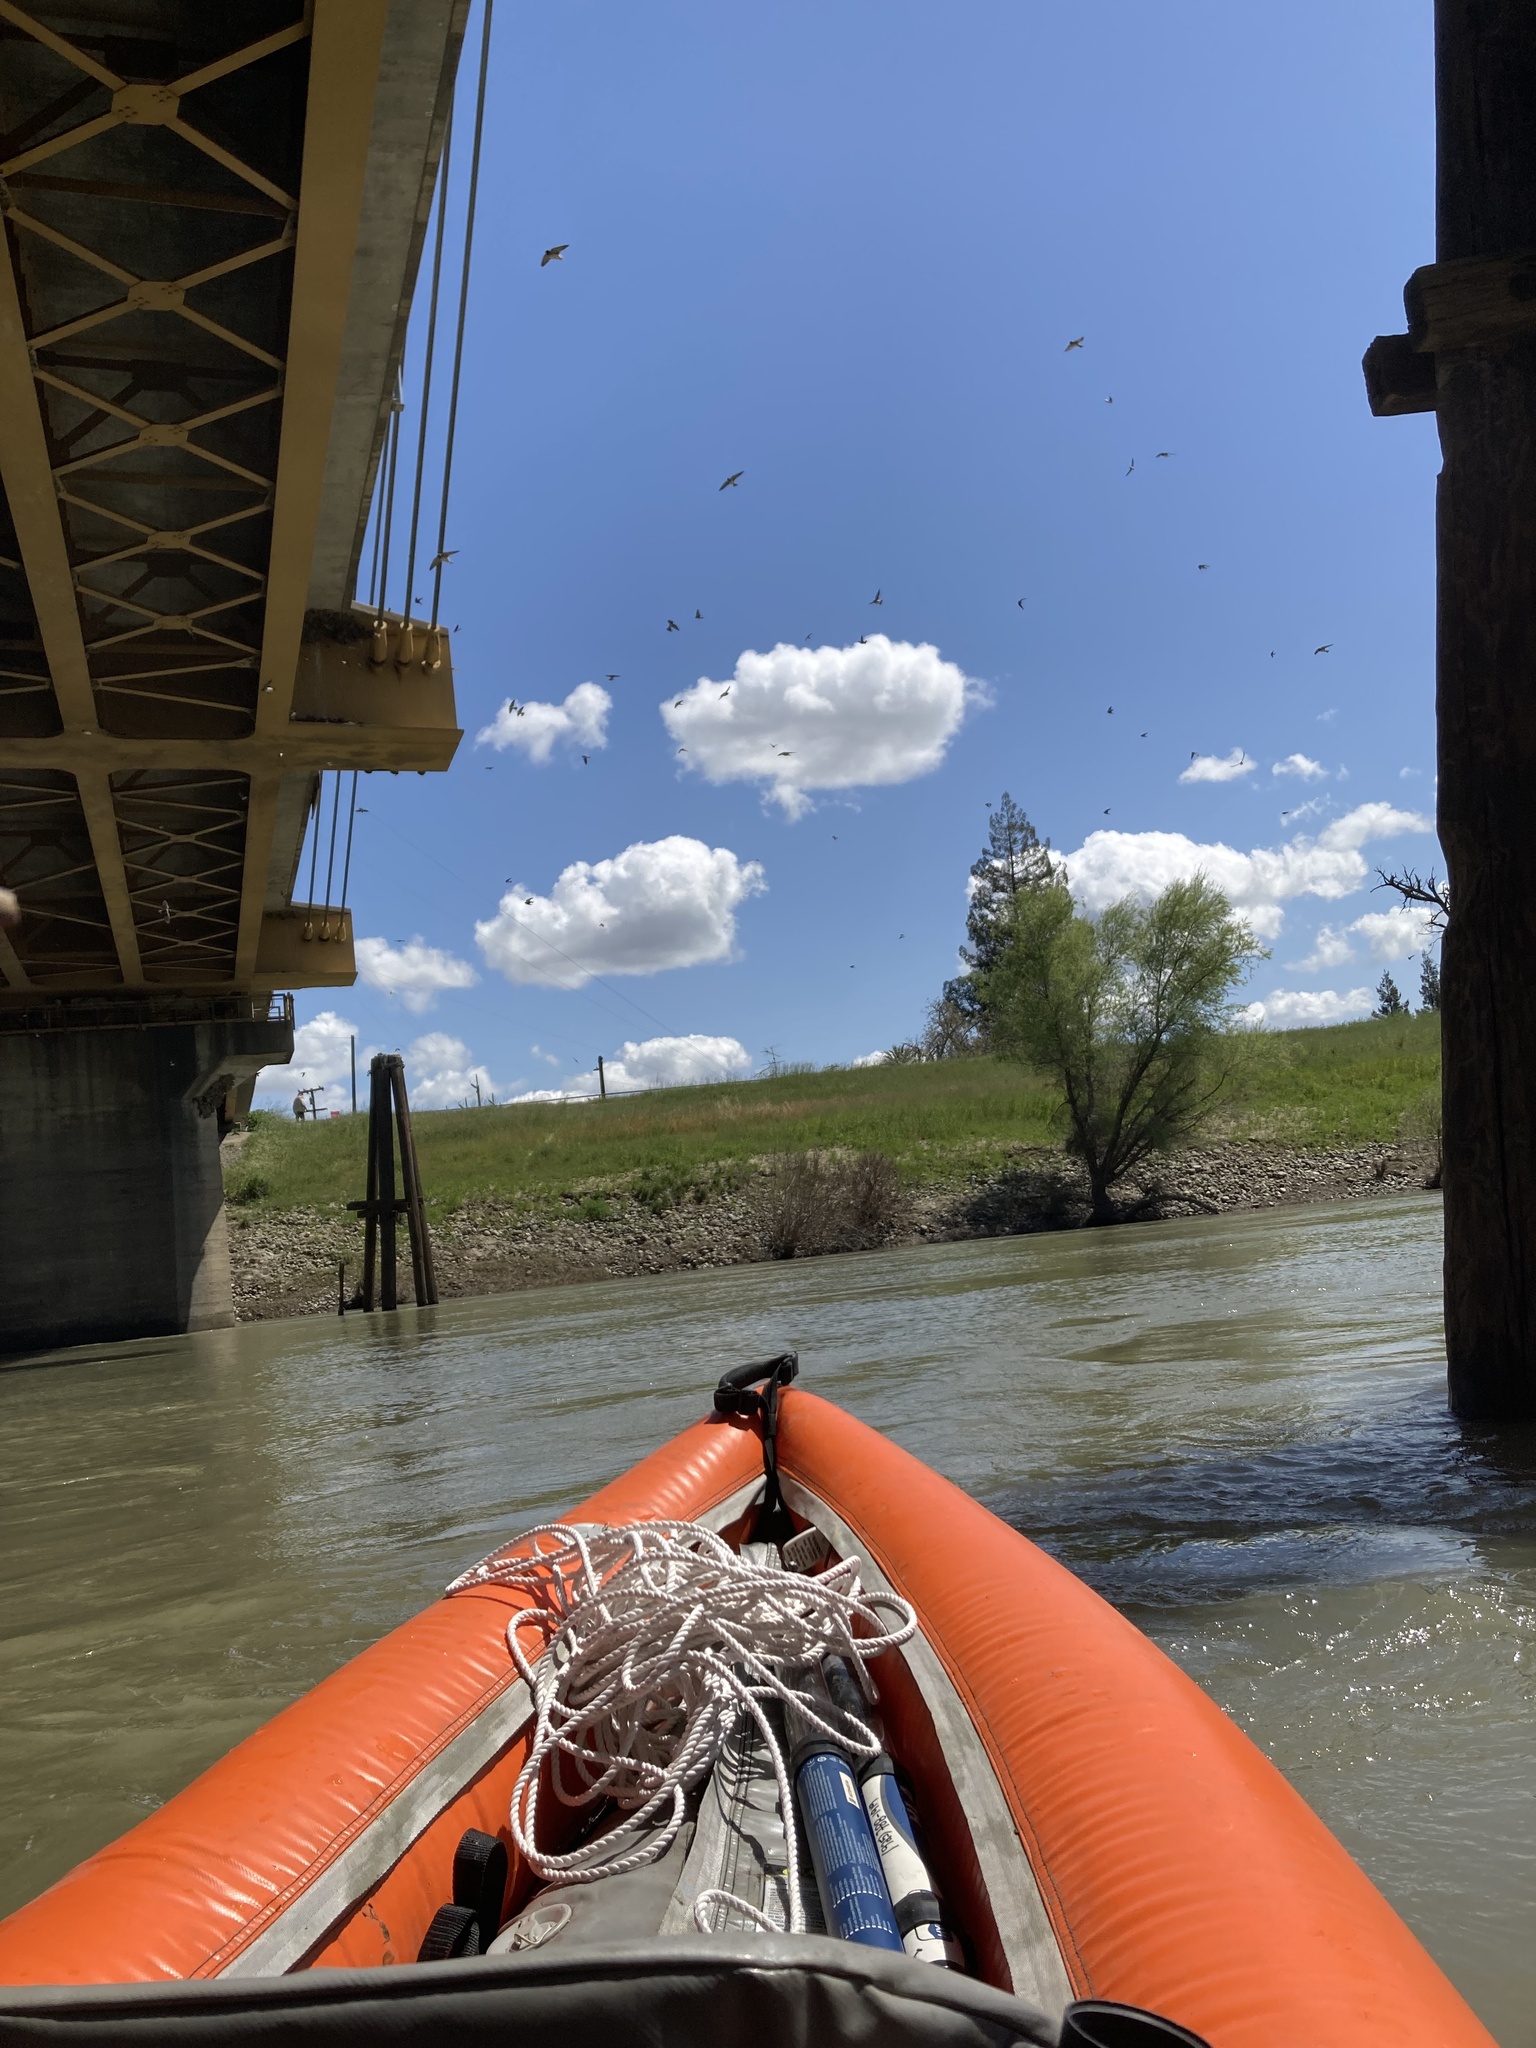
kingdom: Animalia
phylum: Chordata
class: Aves
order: Passeriformes
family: Hirundinidae
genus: Petrochelidon
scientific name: Petrochelidon pyrrhonota
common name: American cliff swallow
